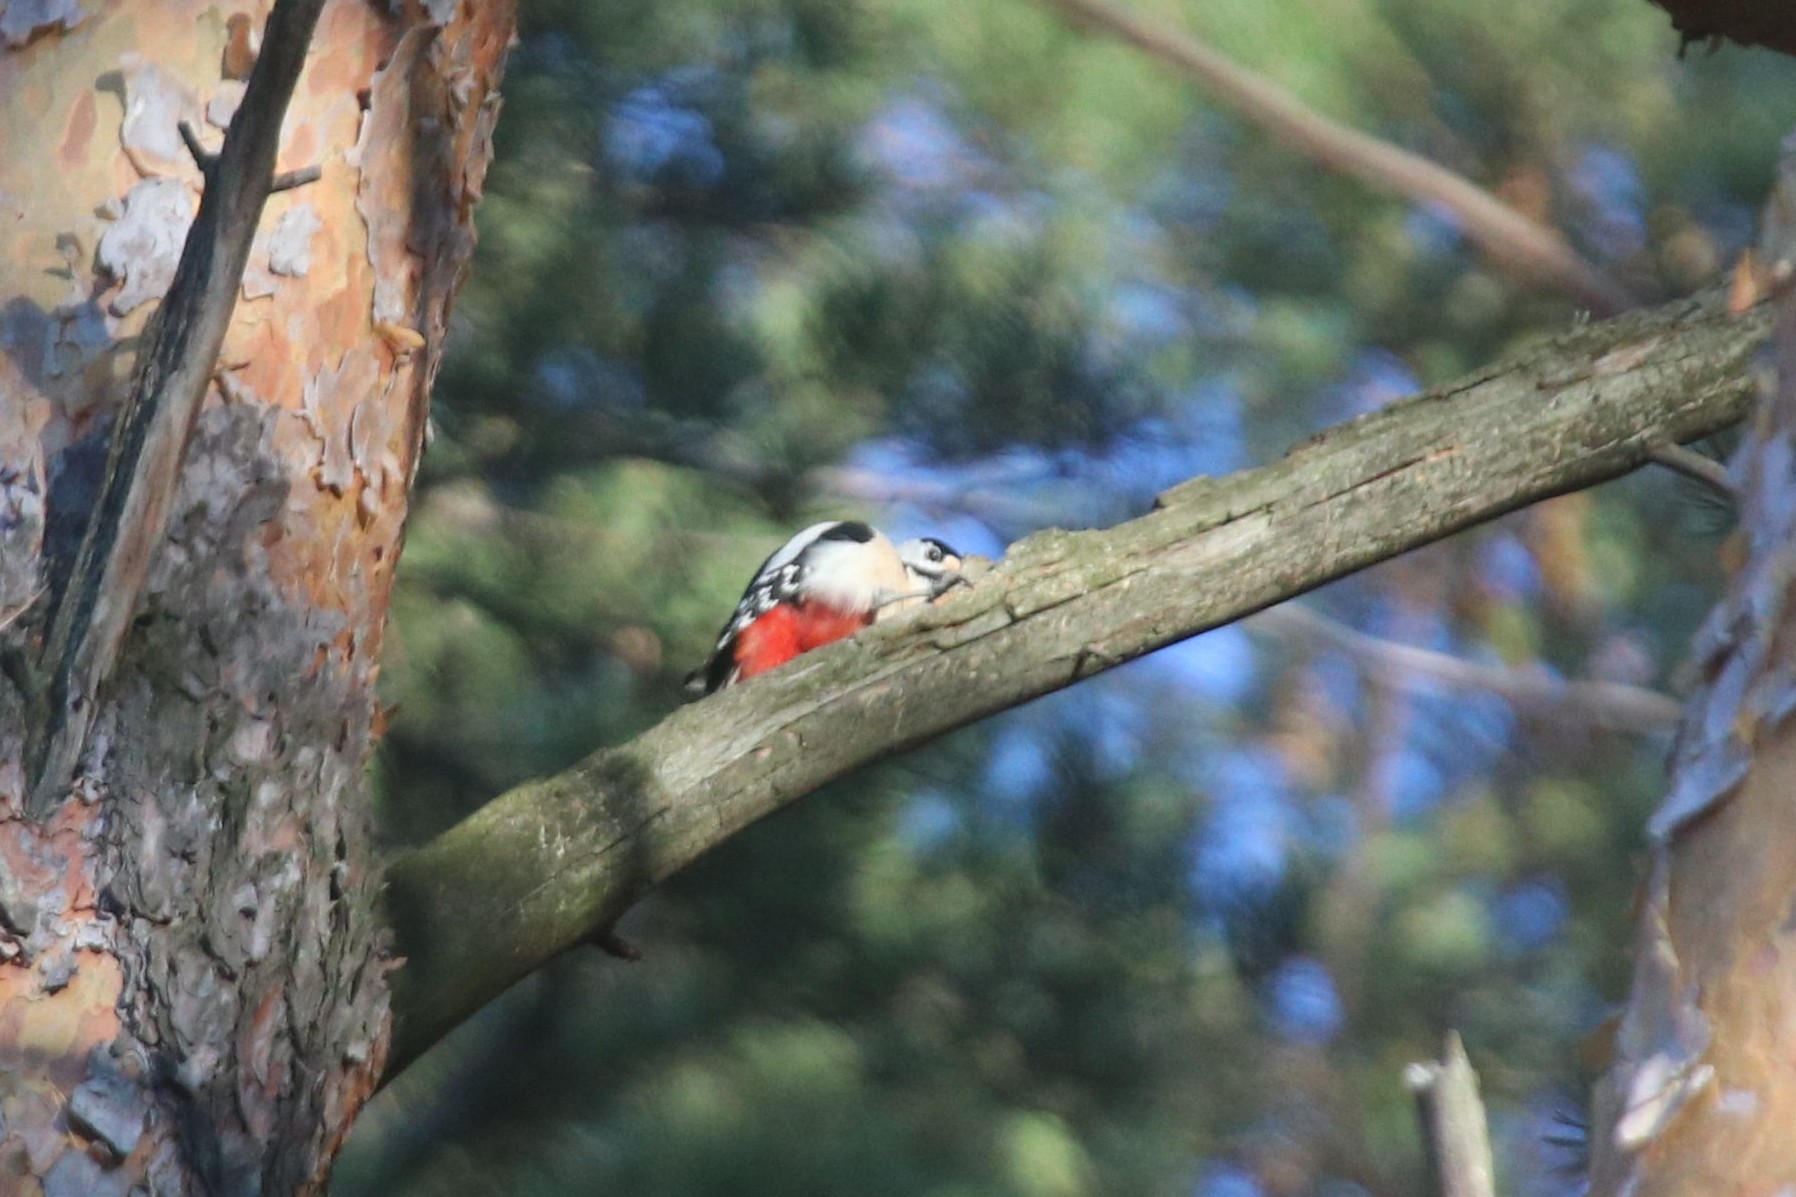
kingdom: Animalia
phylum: Chordata
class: Aves
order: Piciformes
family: Picidae
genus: Dendrocopos
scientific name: Dendrocopos major
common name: Great spotted woodpecker
